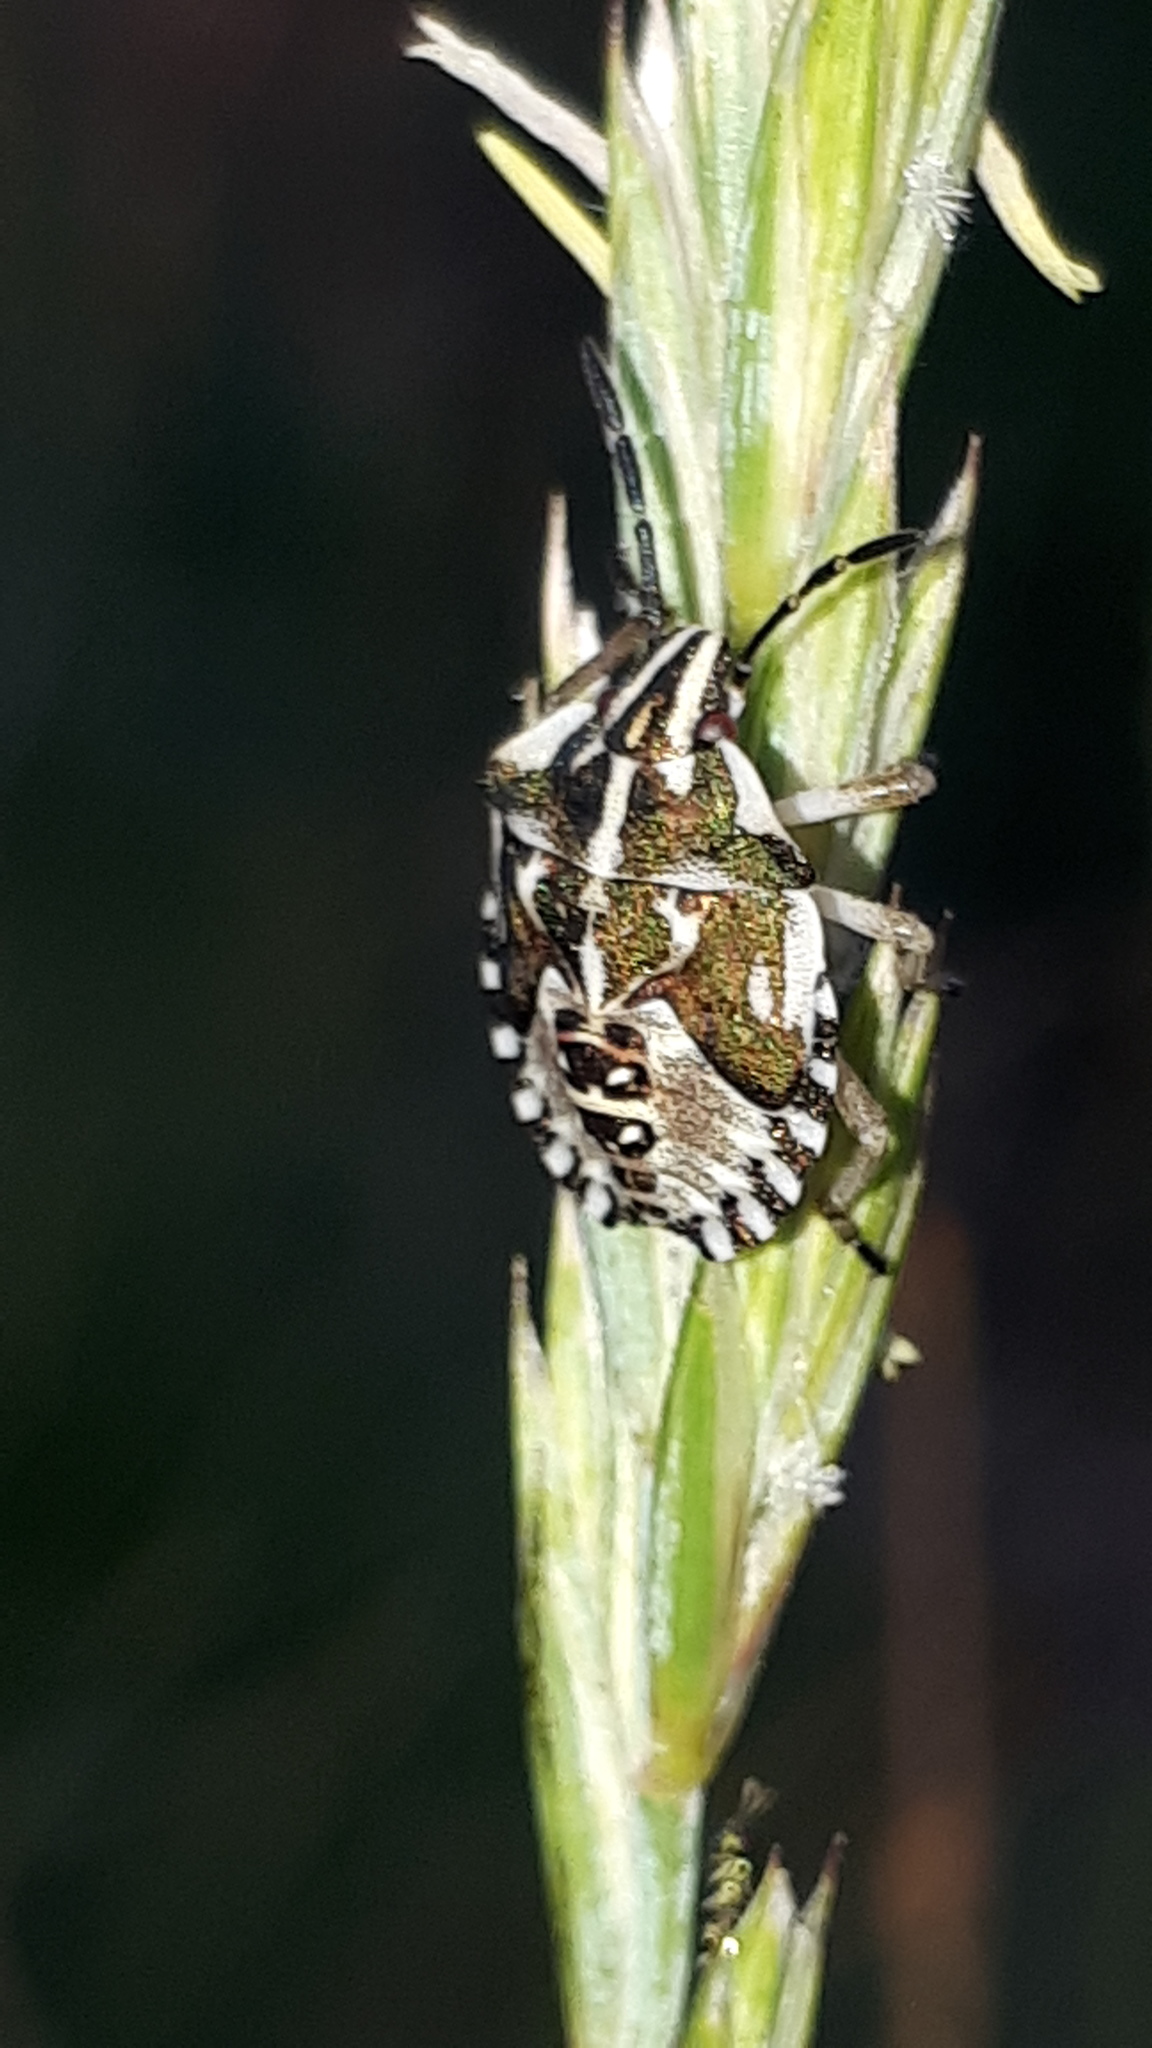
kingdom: Animalia
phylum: Arthropoda
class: Insecta
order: Hemiptera
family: Pentatomidae
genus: Carpocoris
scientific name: Carpocoris purpureipennis
